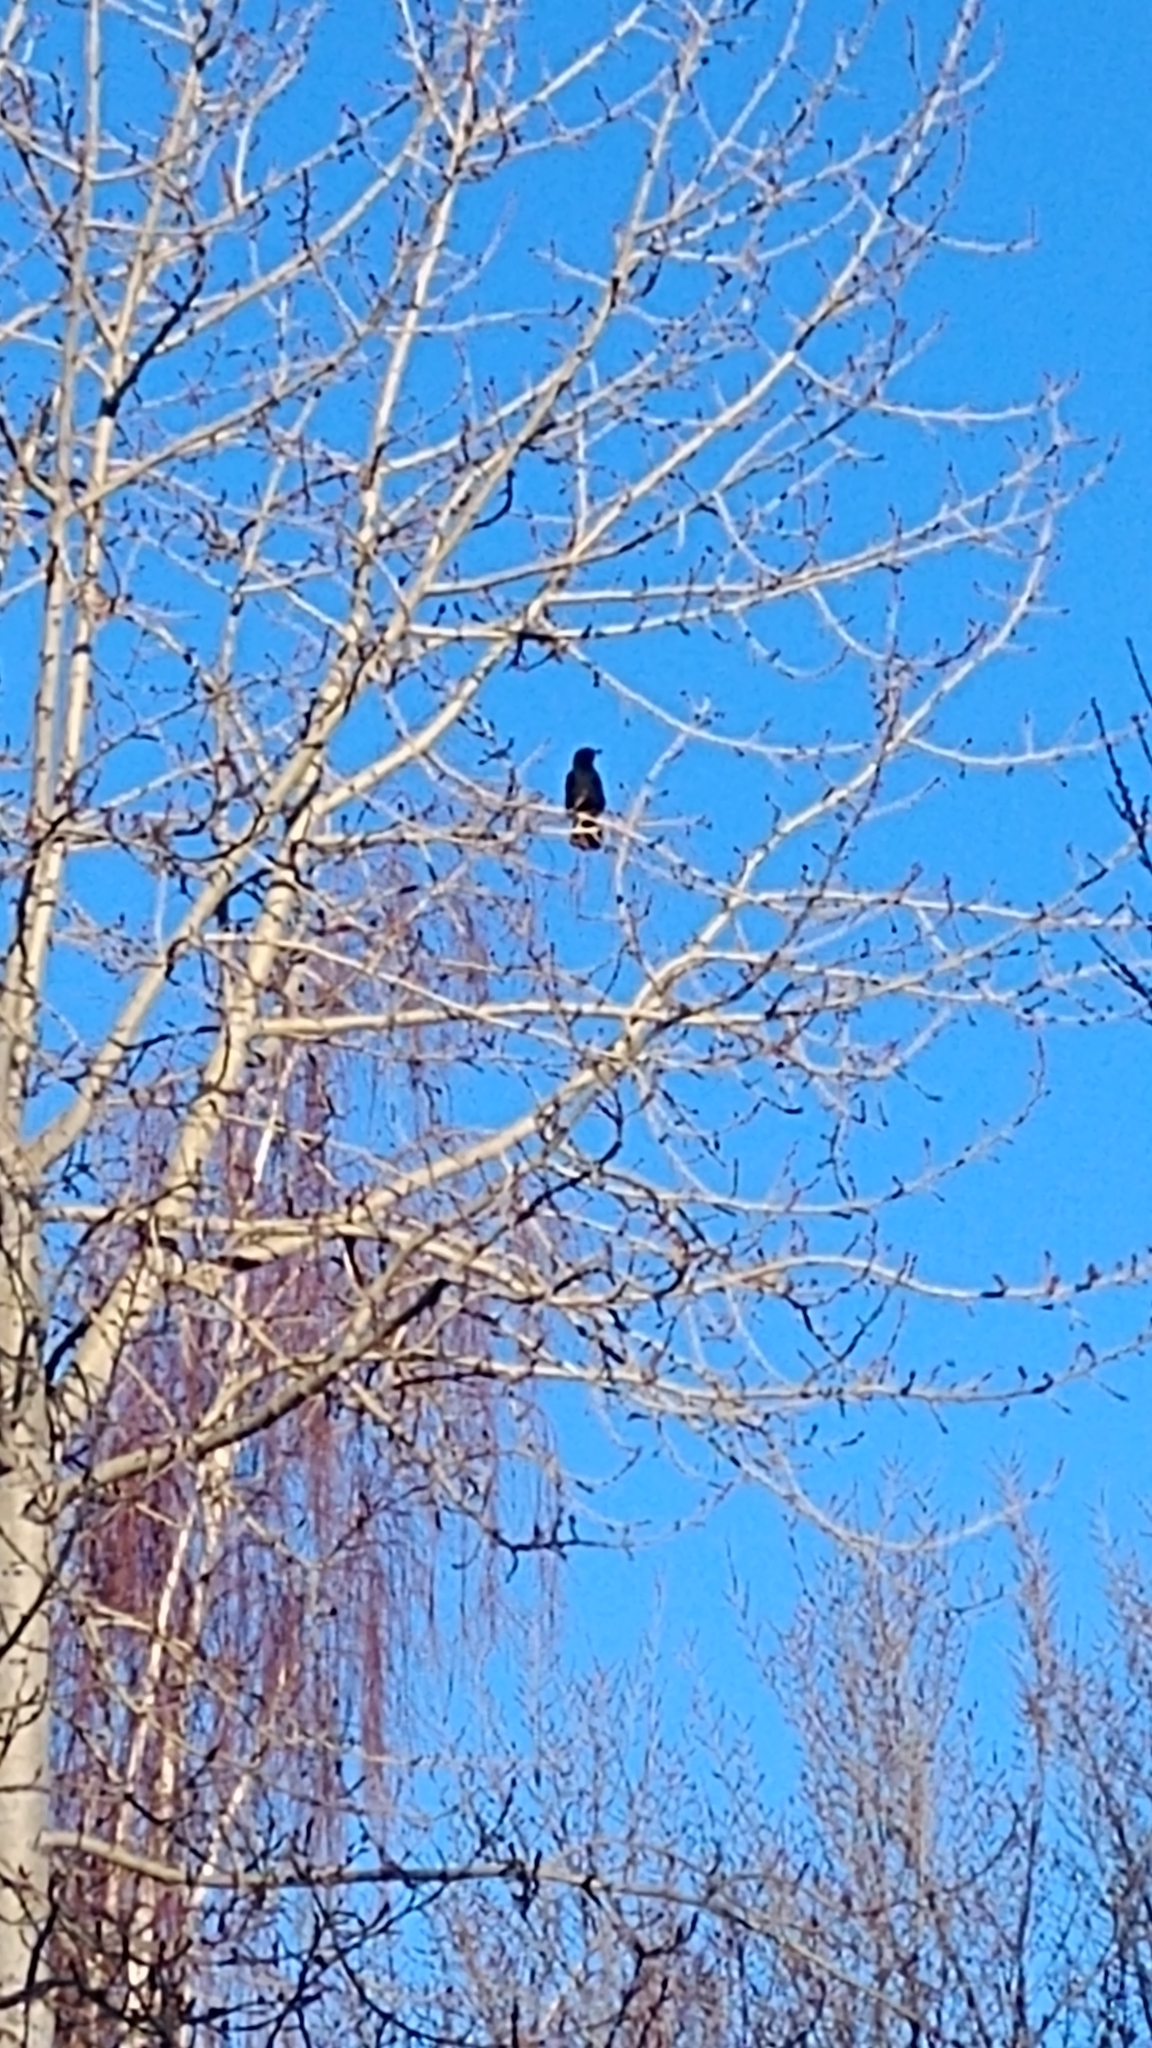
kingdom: Animalia
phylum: Chordata
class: Aves
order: Passeriformes
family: Corvidae
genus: Corvus
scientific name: Corvus brachyrhynchos
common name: American crow
